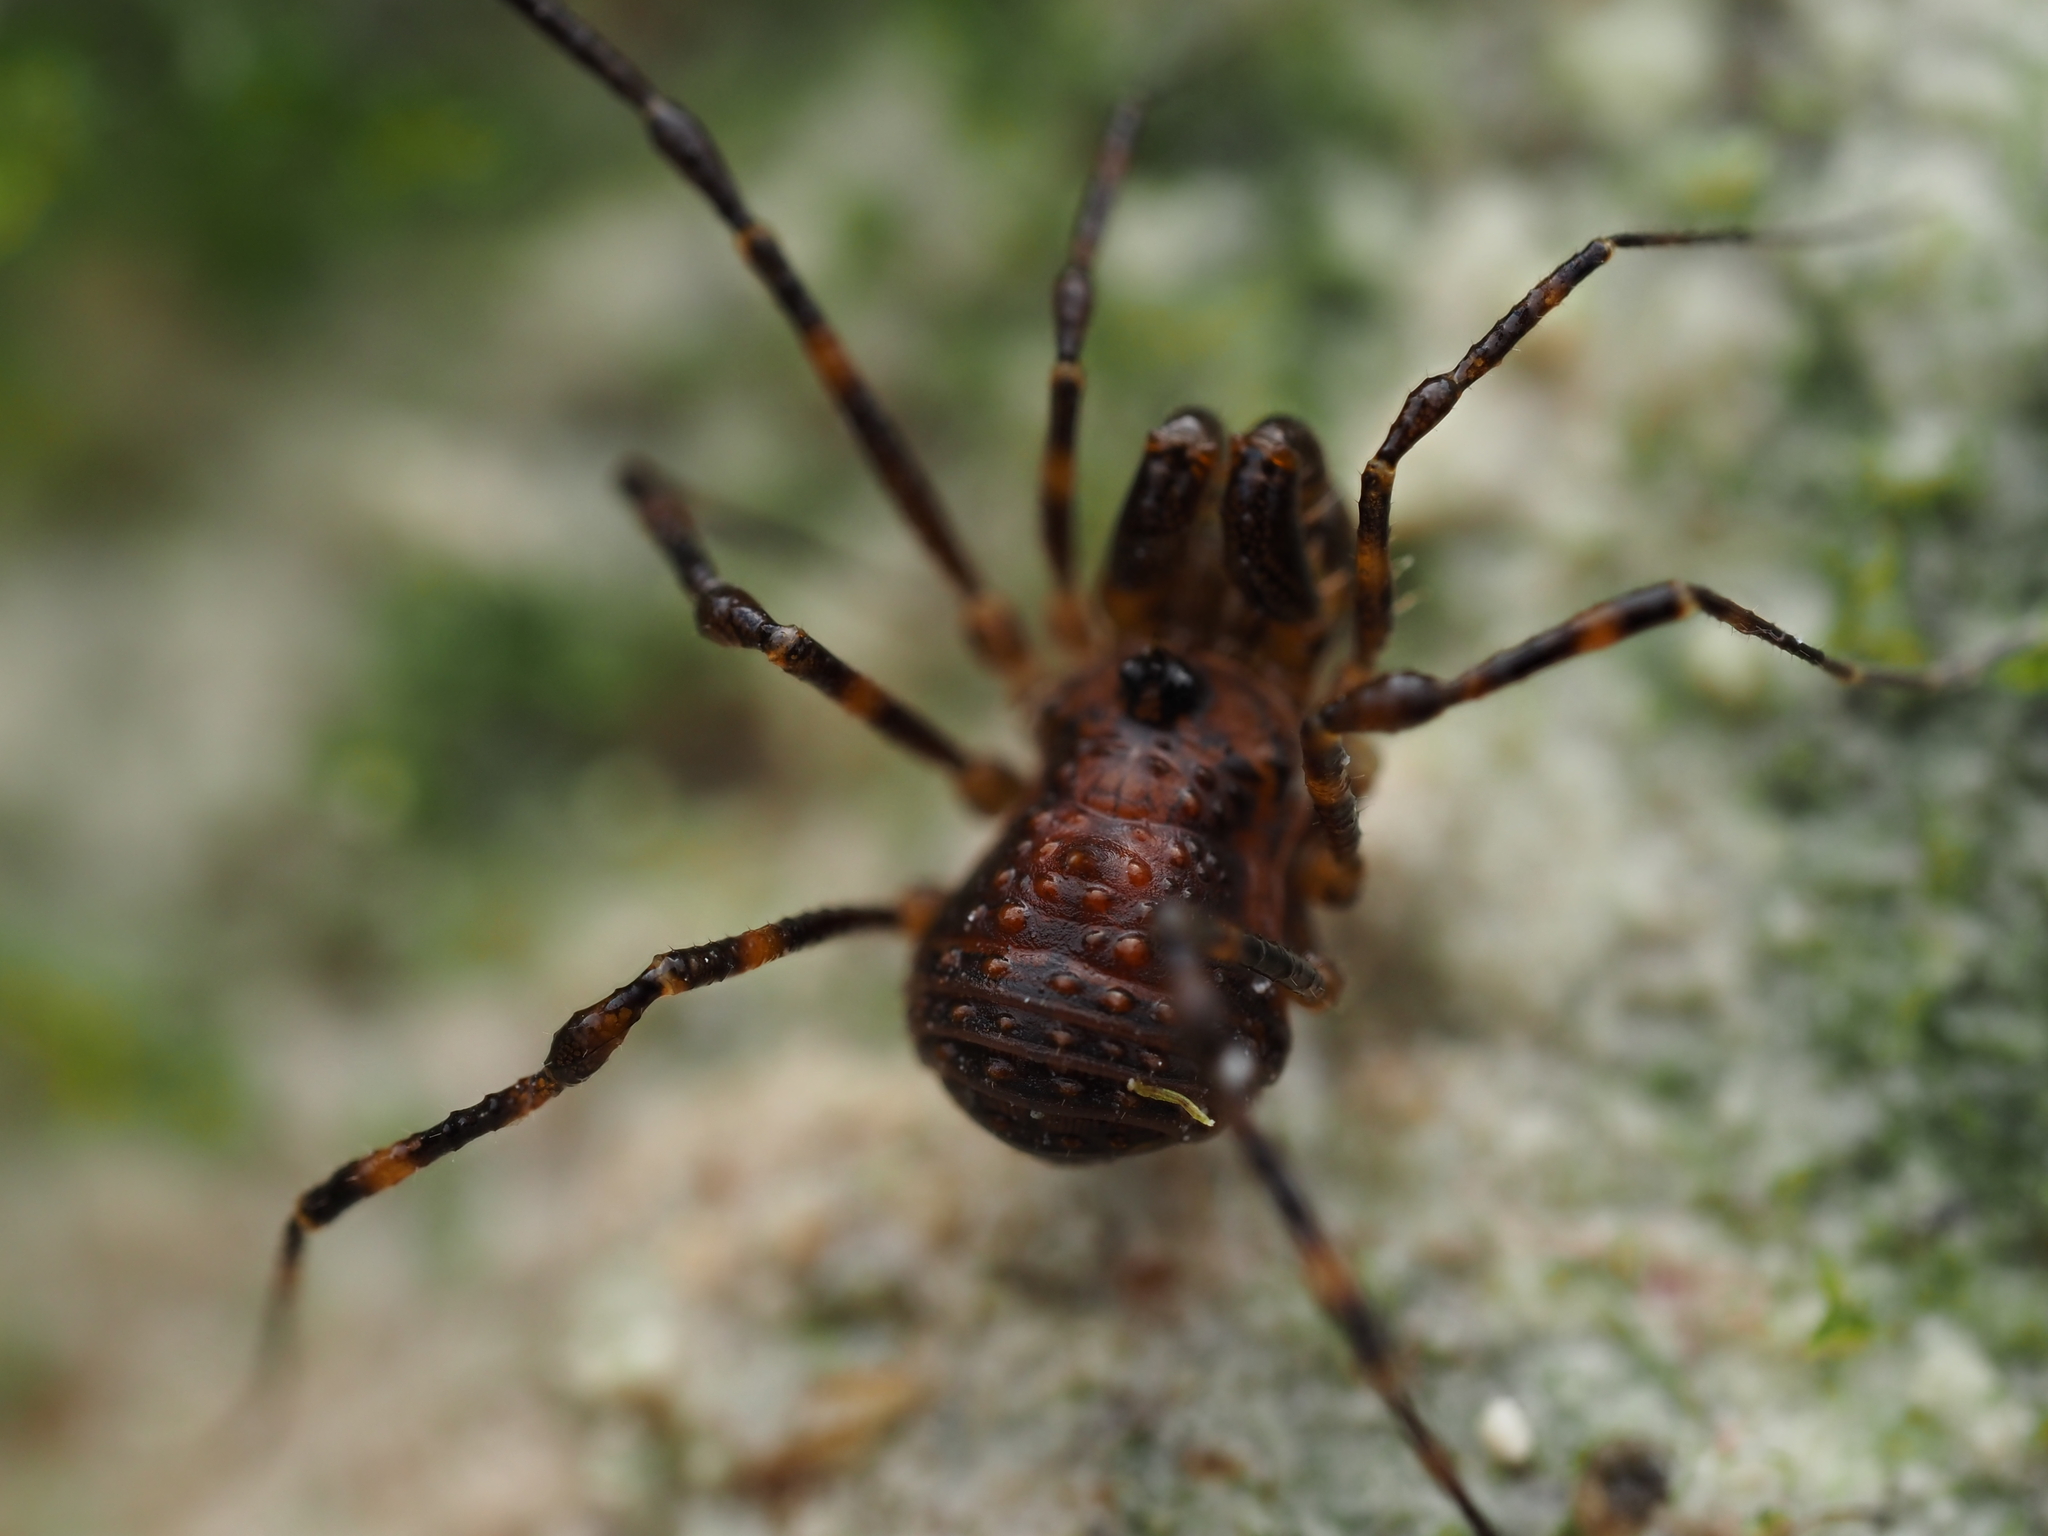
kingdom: Animalia
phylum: Arthropoda
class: Arachnida
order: Opiliones
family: Triaenonychidae
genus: Hendea
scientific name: Hendea myersi
